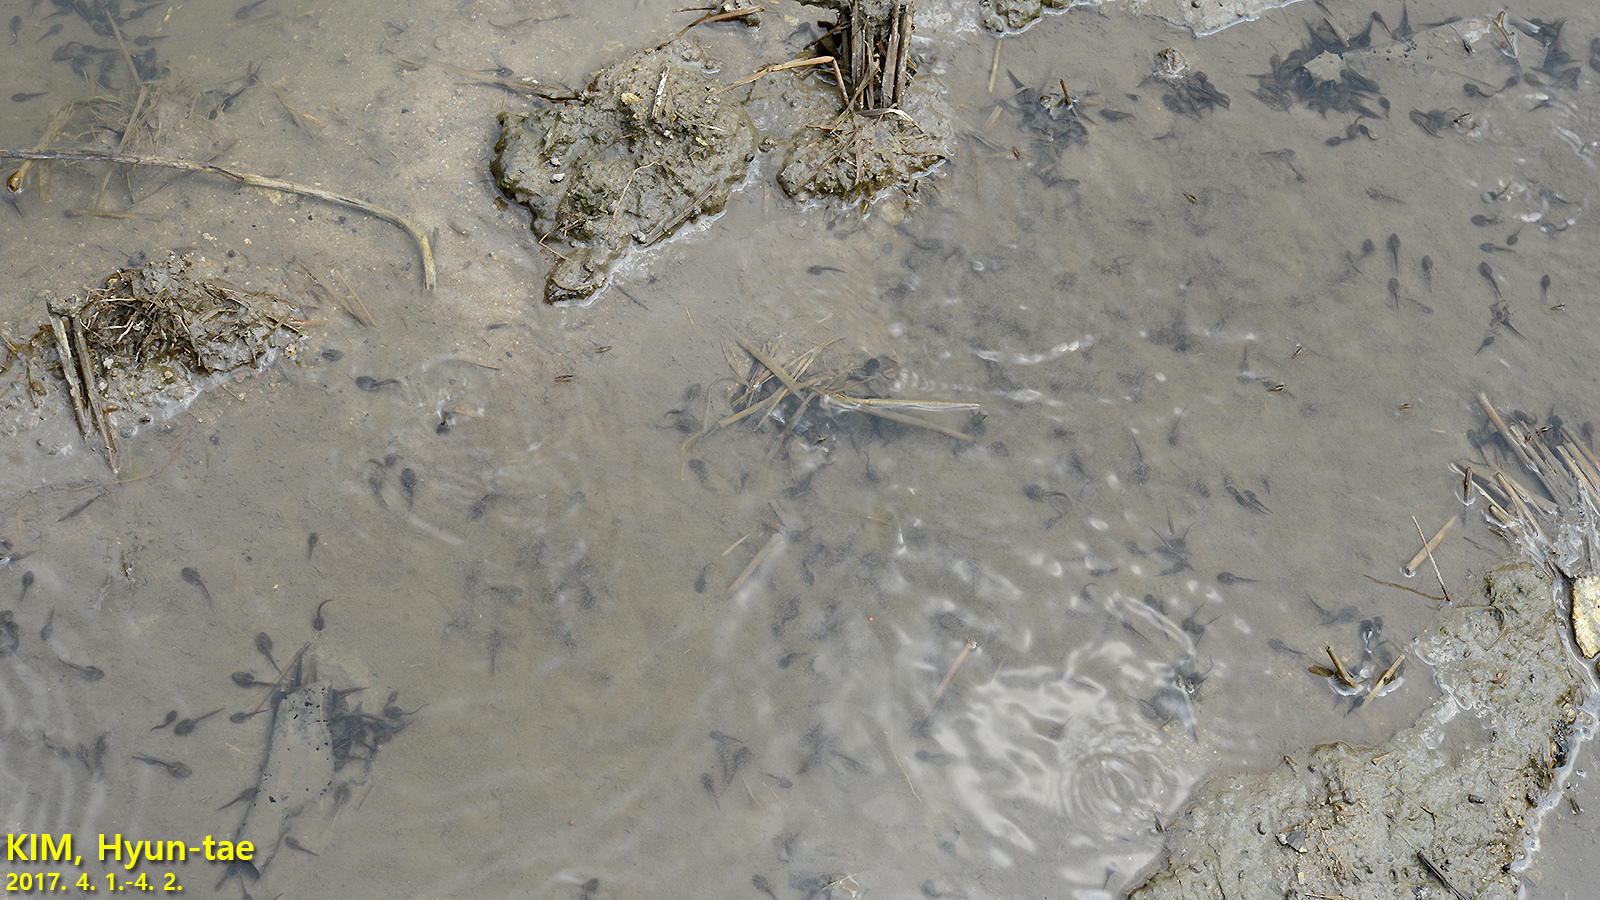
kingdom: Animalia
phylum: Chordata
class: Amphibia
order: Anura
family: Ranidae
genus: Rana
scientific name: Rana uenoi
